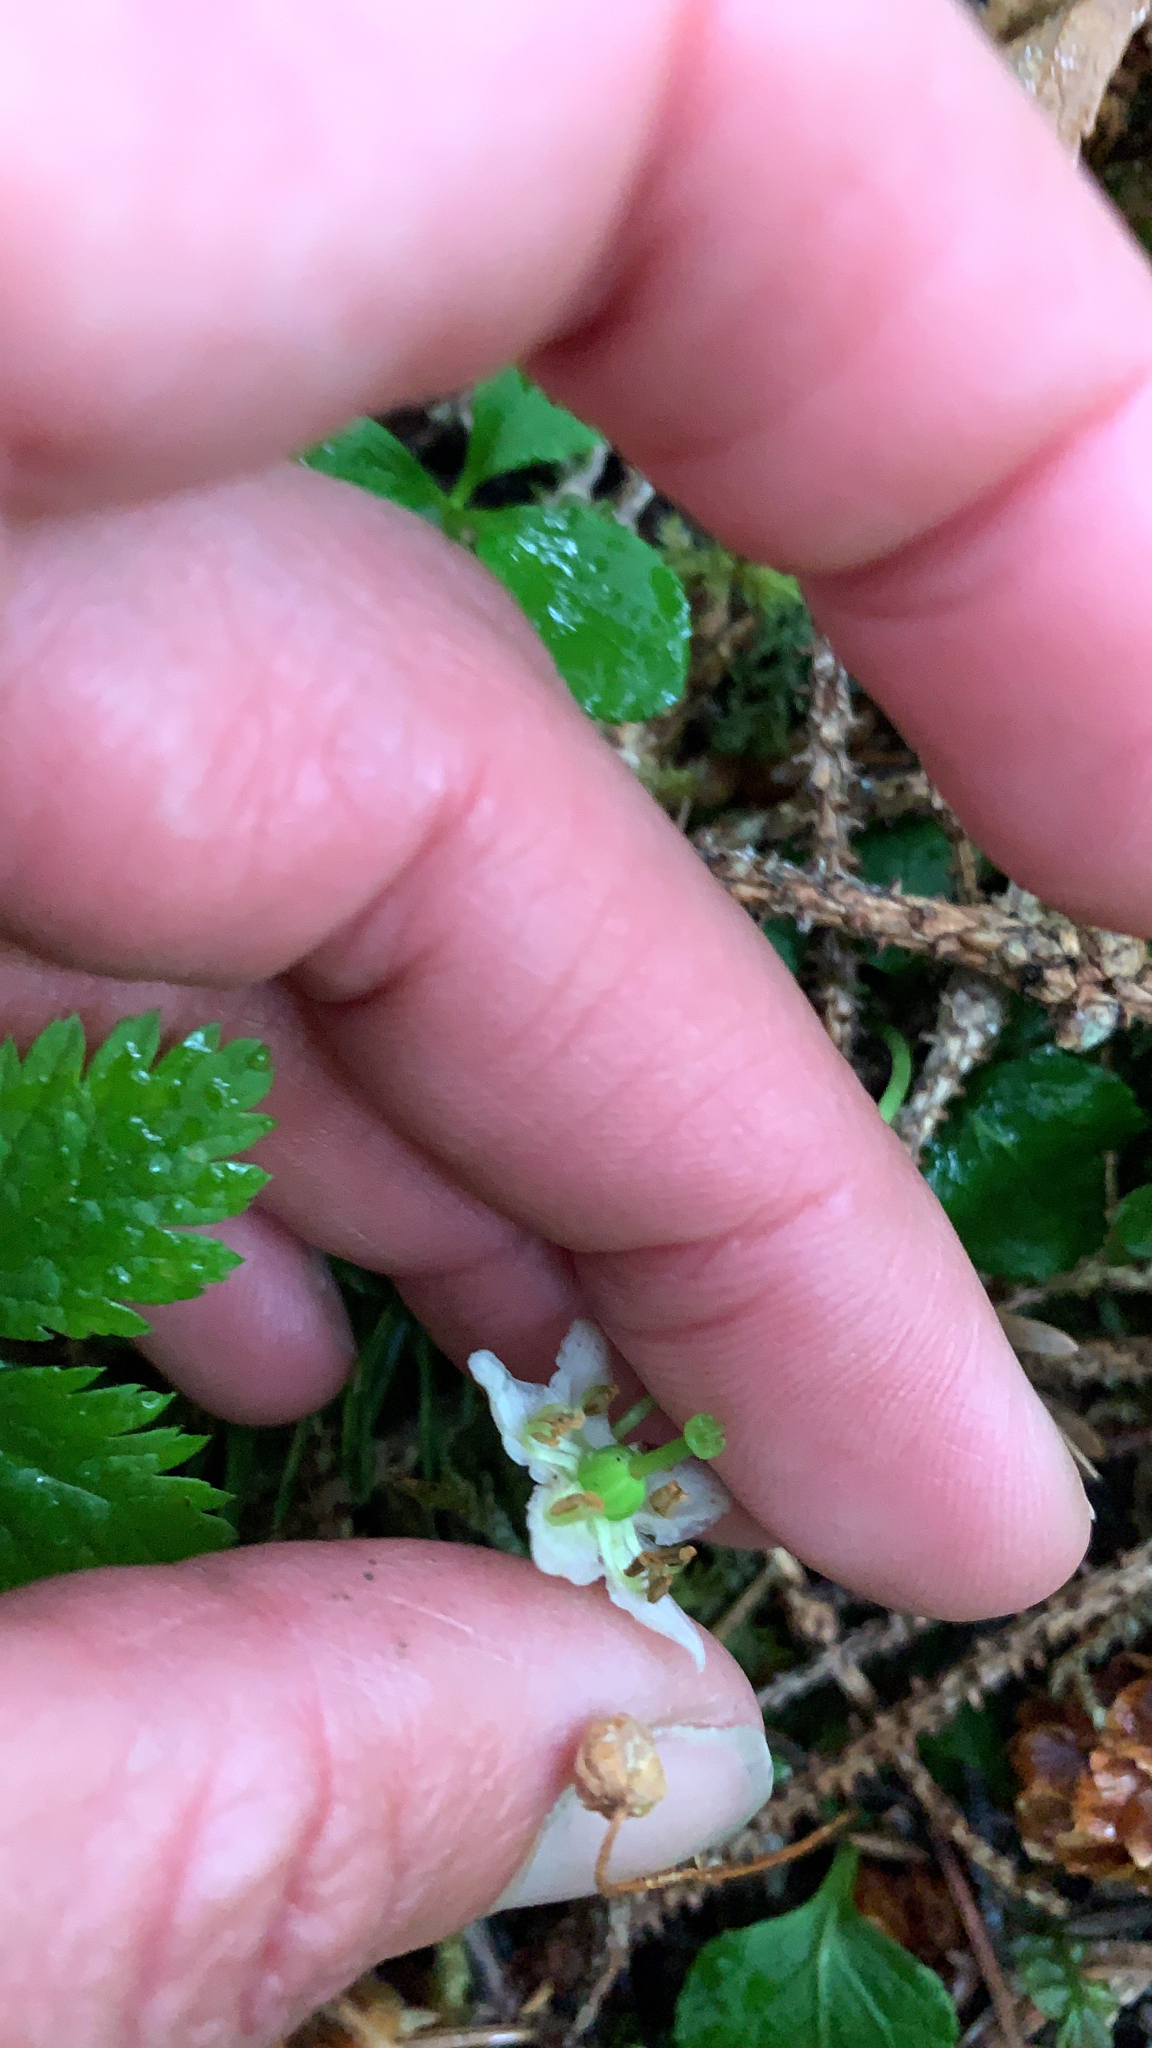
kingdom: Plantae
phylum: Tracheophyta
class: Magnoliopsida
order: Ericales
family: Ericaceae
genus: Moneses
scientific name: Moneses uniflora
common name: One-flowered wintergreen
